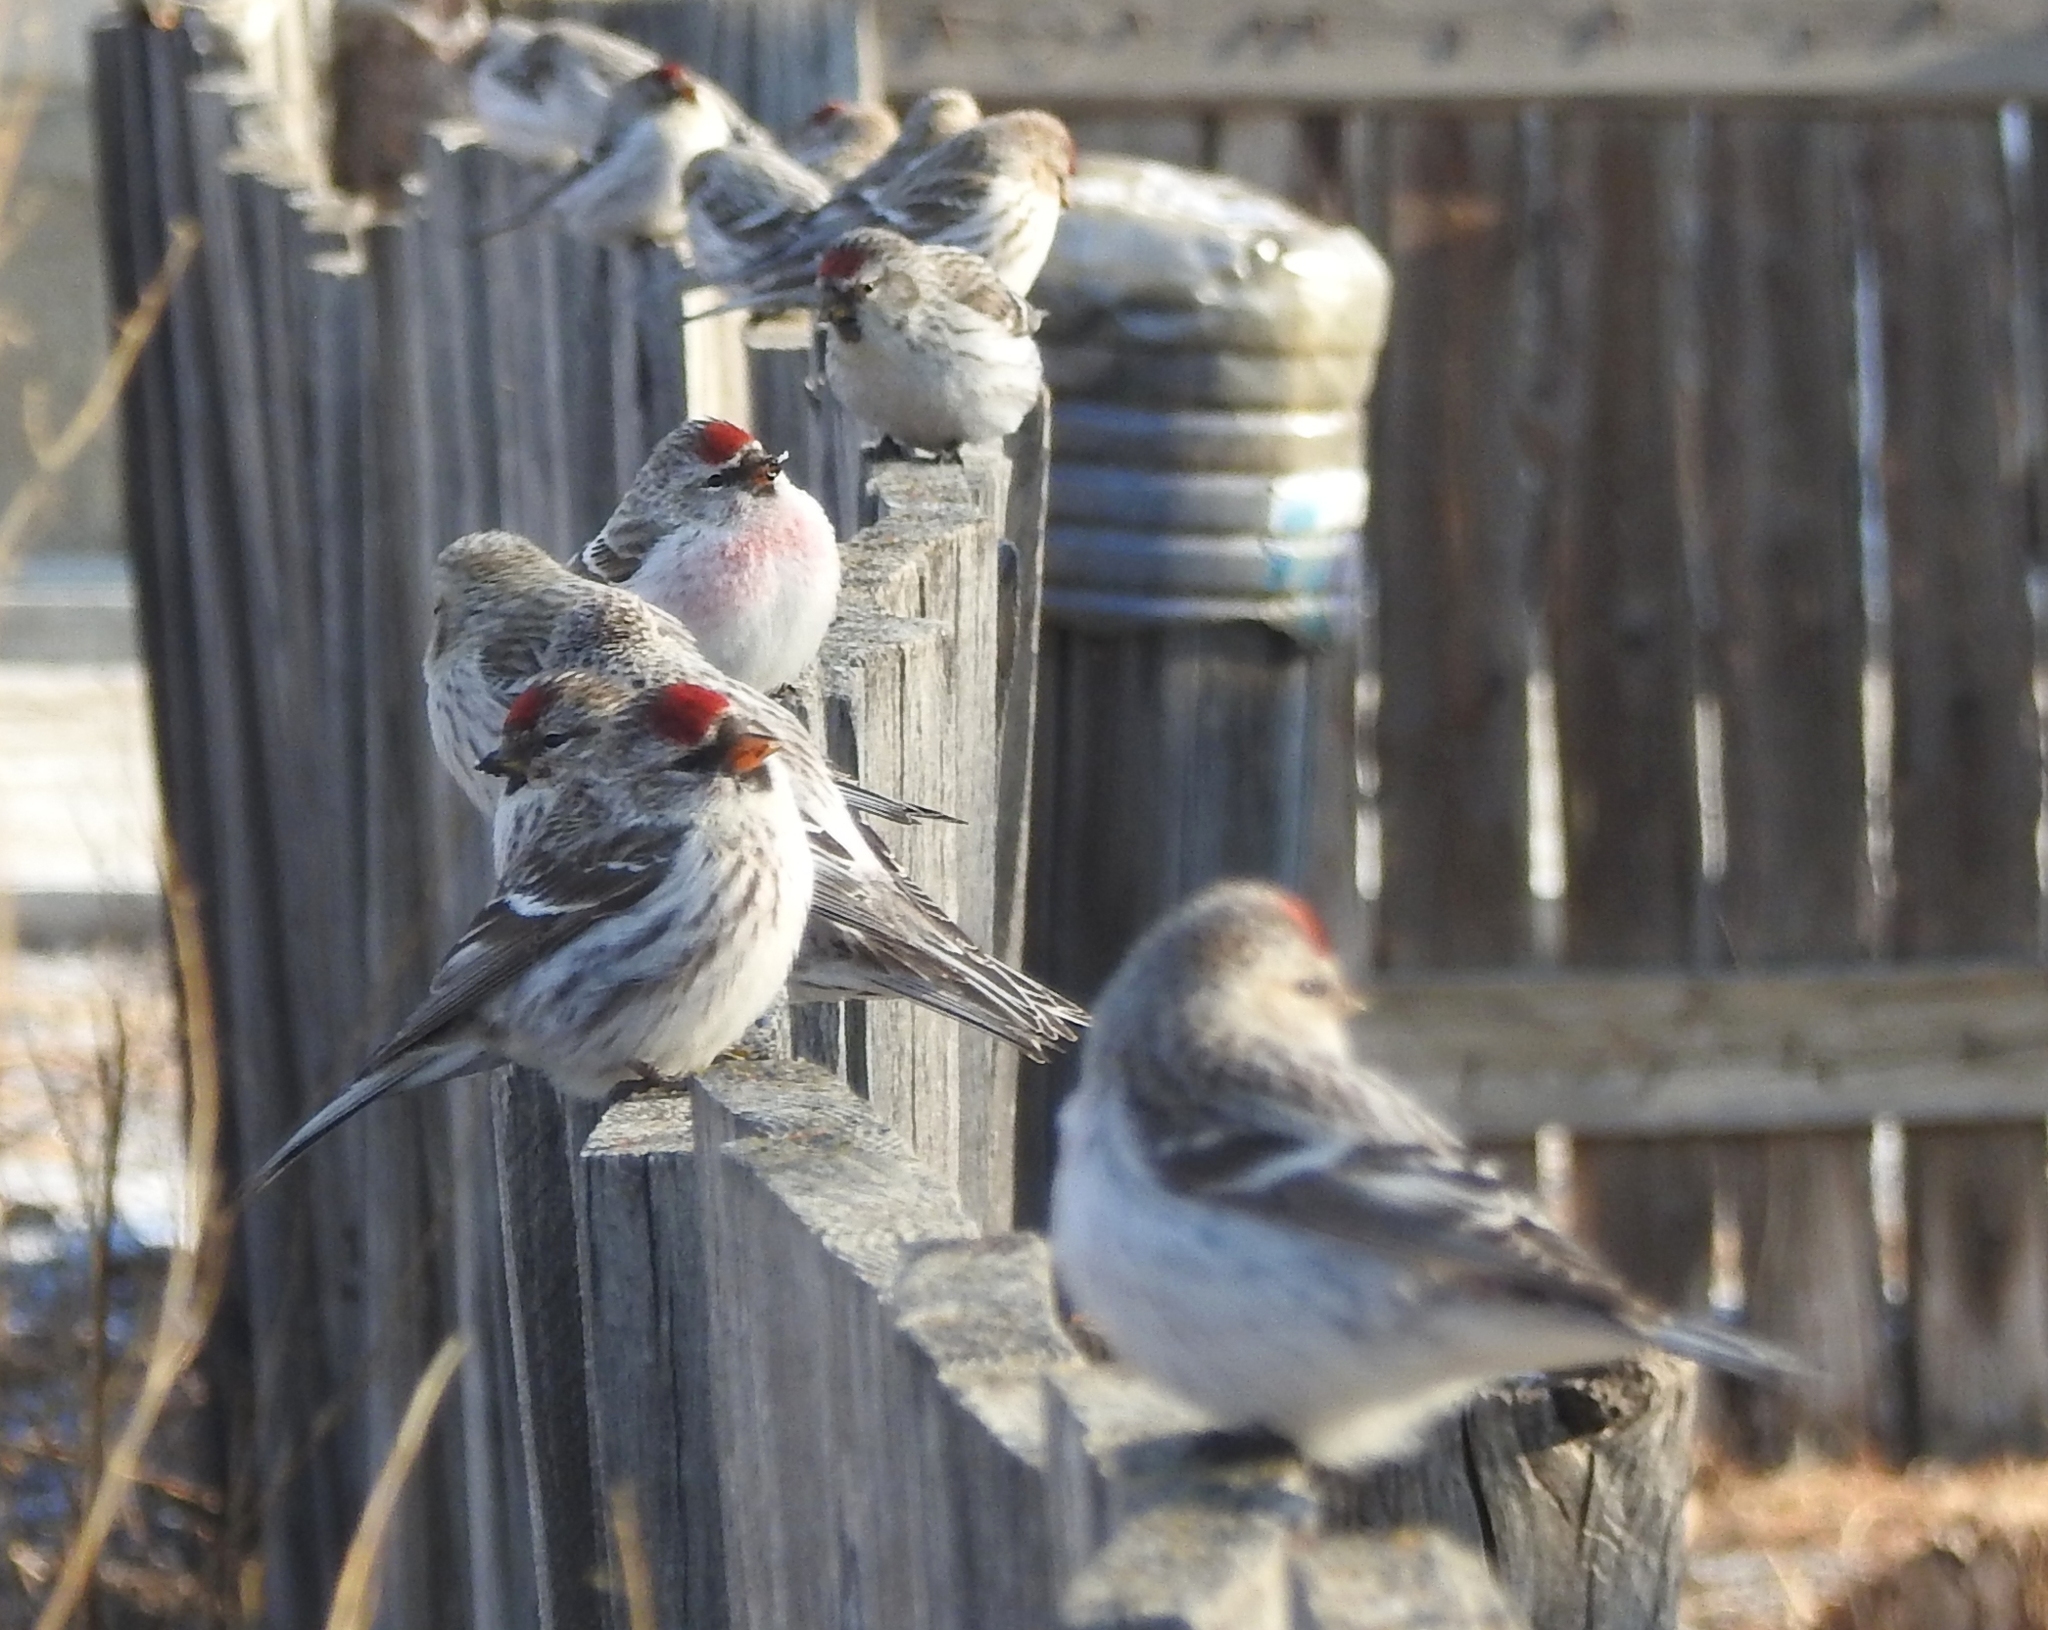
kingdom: Animalia
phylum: Chordata
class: Aves
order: Passeriformes
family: Fringillidae
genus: Acanthis
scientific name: Acanthis hornemanni
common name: Arctic redpoll
